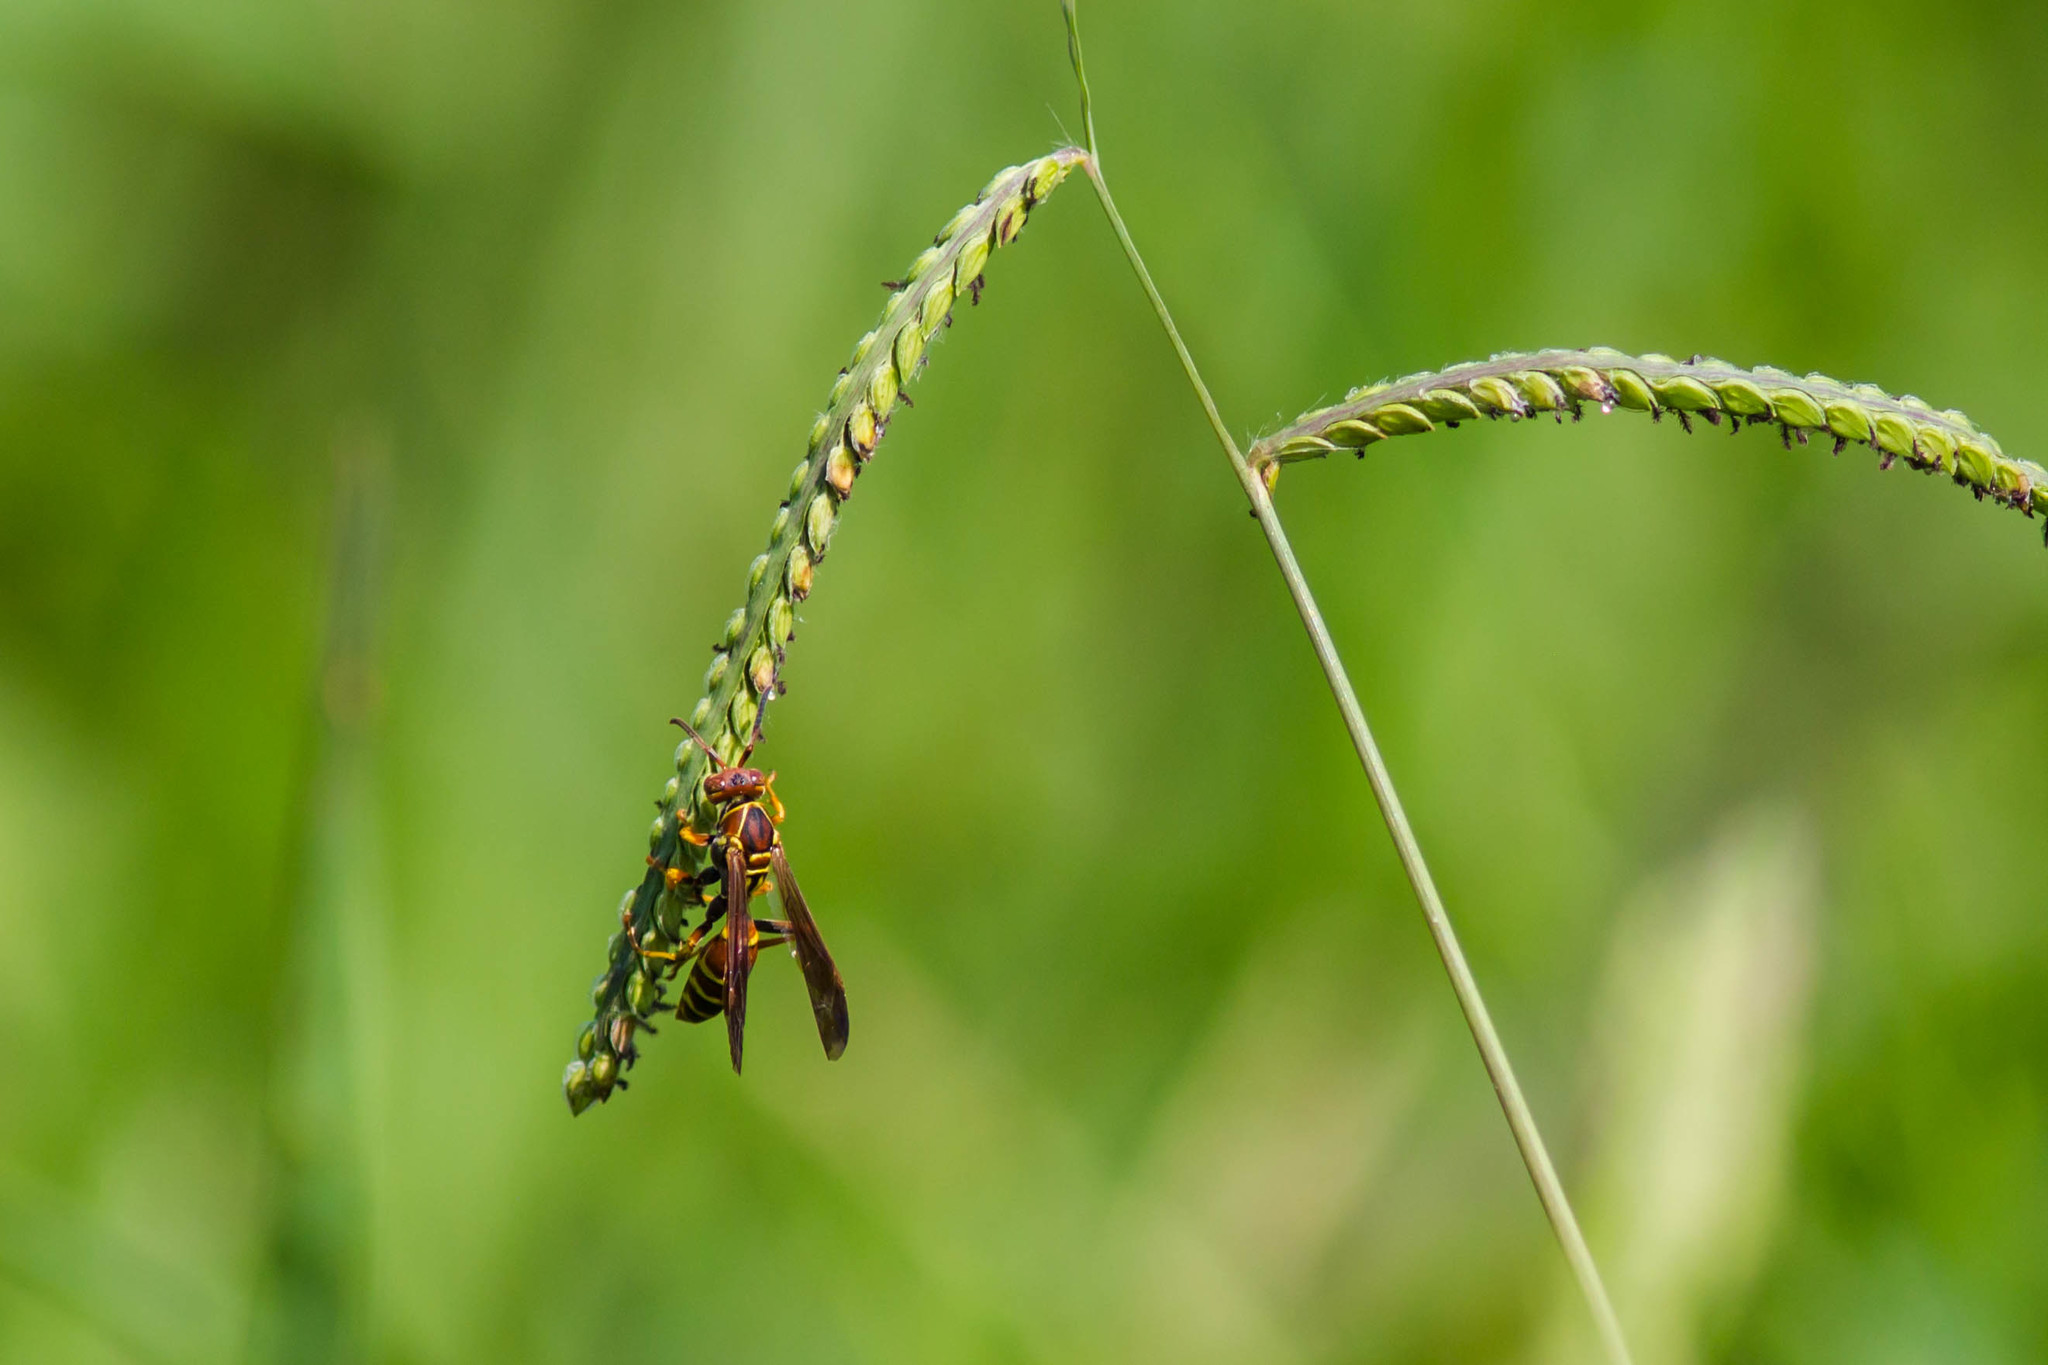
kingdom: Animalia
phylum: Arthropoda
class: Insecta
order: Hymenoptera
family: Eumenidae
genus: Polistes
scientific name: Polistes dorsalis
